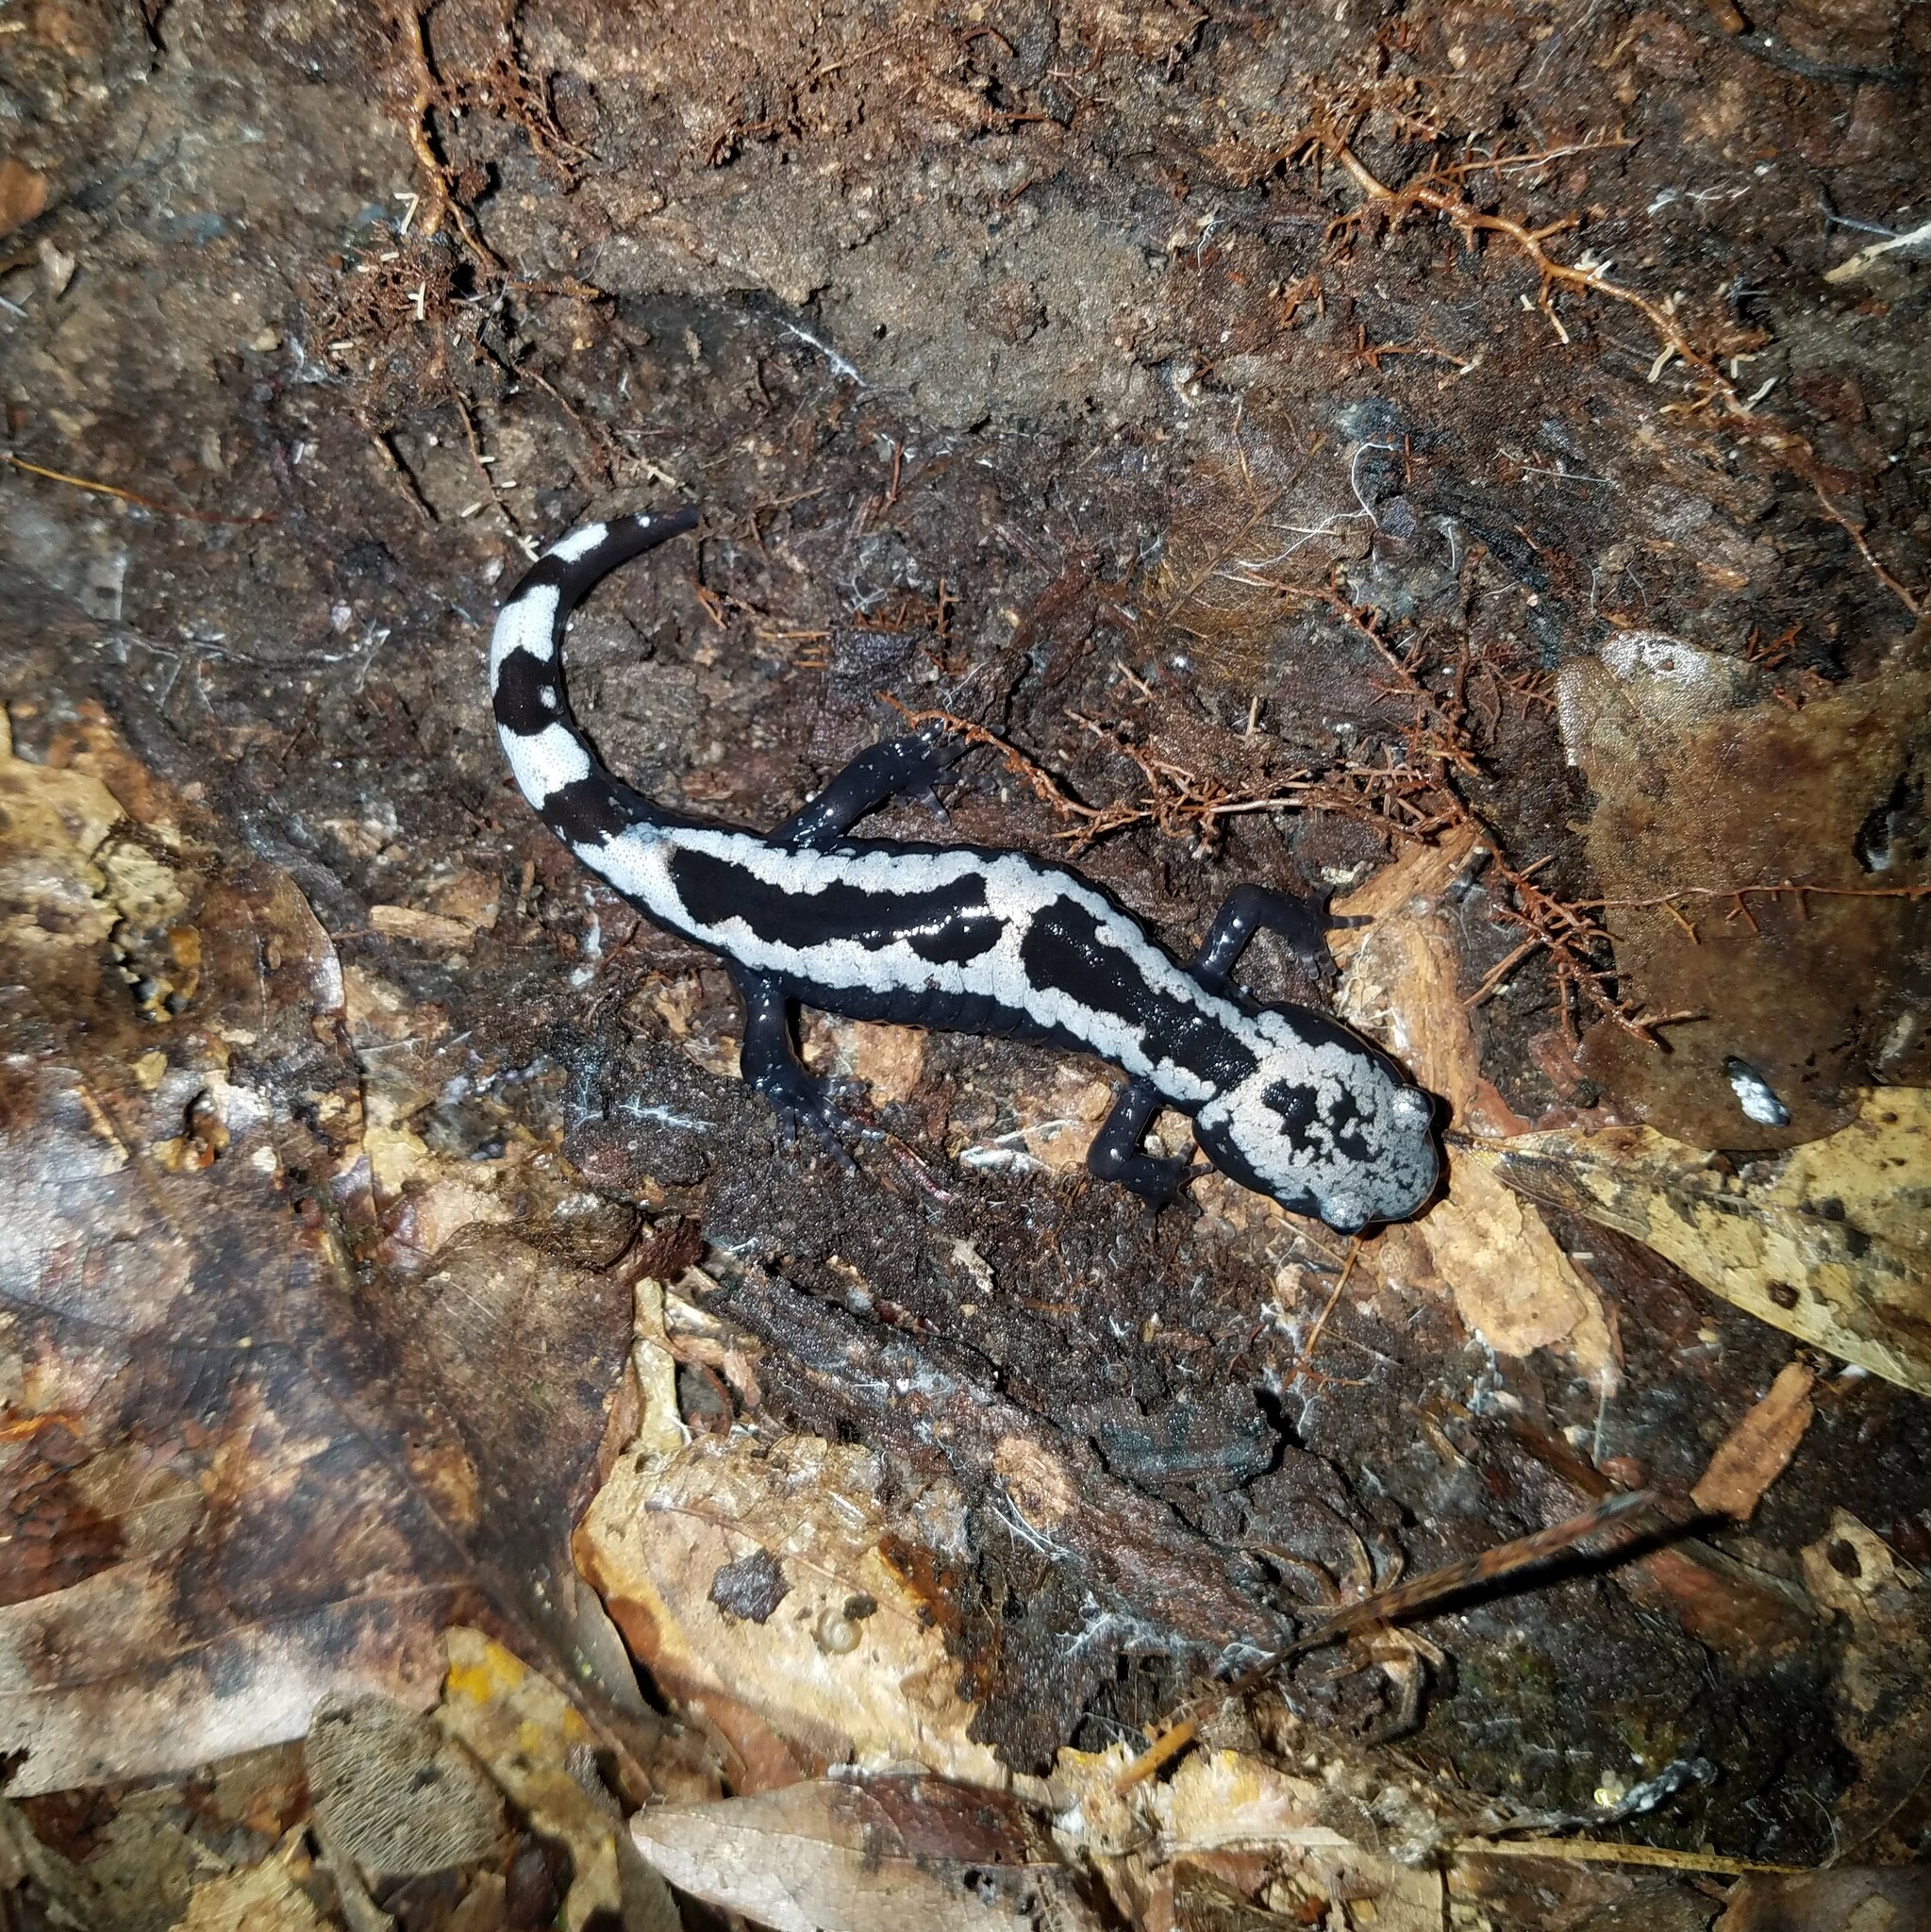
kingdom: Animalia
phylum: Chordata
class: Amphibia
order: Caudata
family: Ambystomatidae
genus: Ambystoma
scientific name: Ambystoma opacum
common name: Marbled salamander
